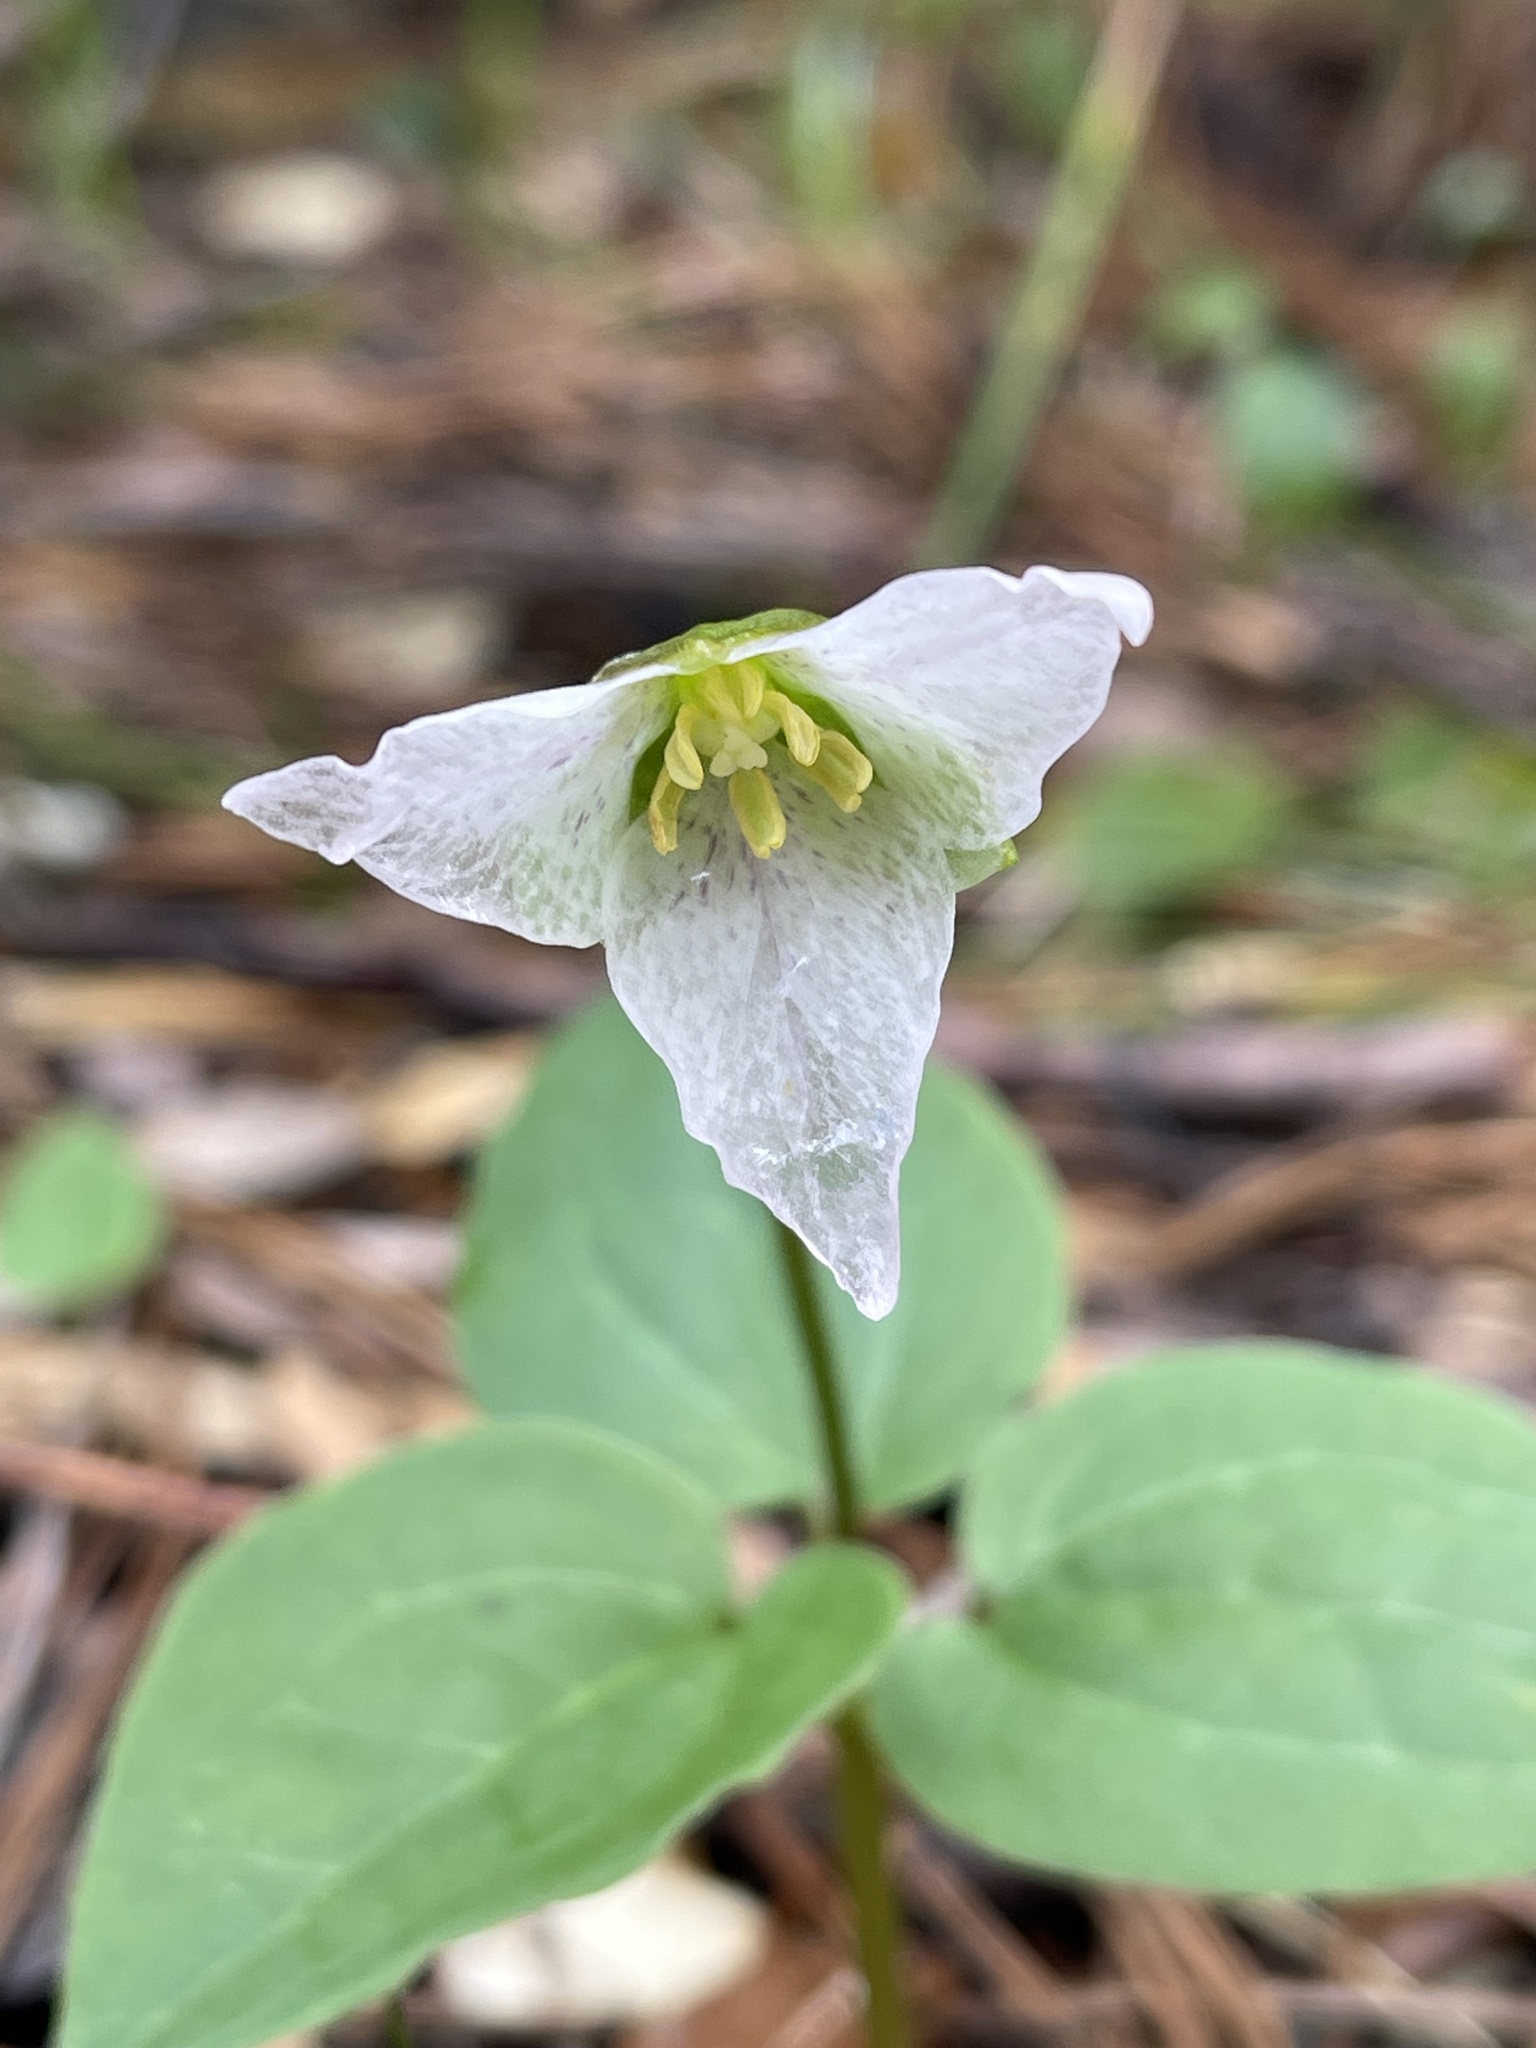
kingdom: Plantae
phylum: Tracheophyta
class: Liliopsida
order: Liliales
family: Melanthiaceae
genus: Pseudotrillium
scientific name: Pseudotrillium rivale
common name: Brook wakerobin
